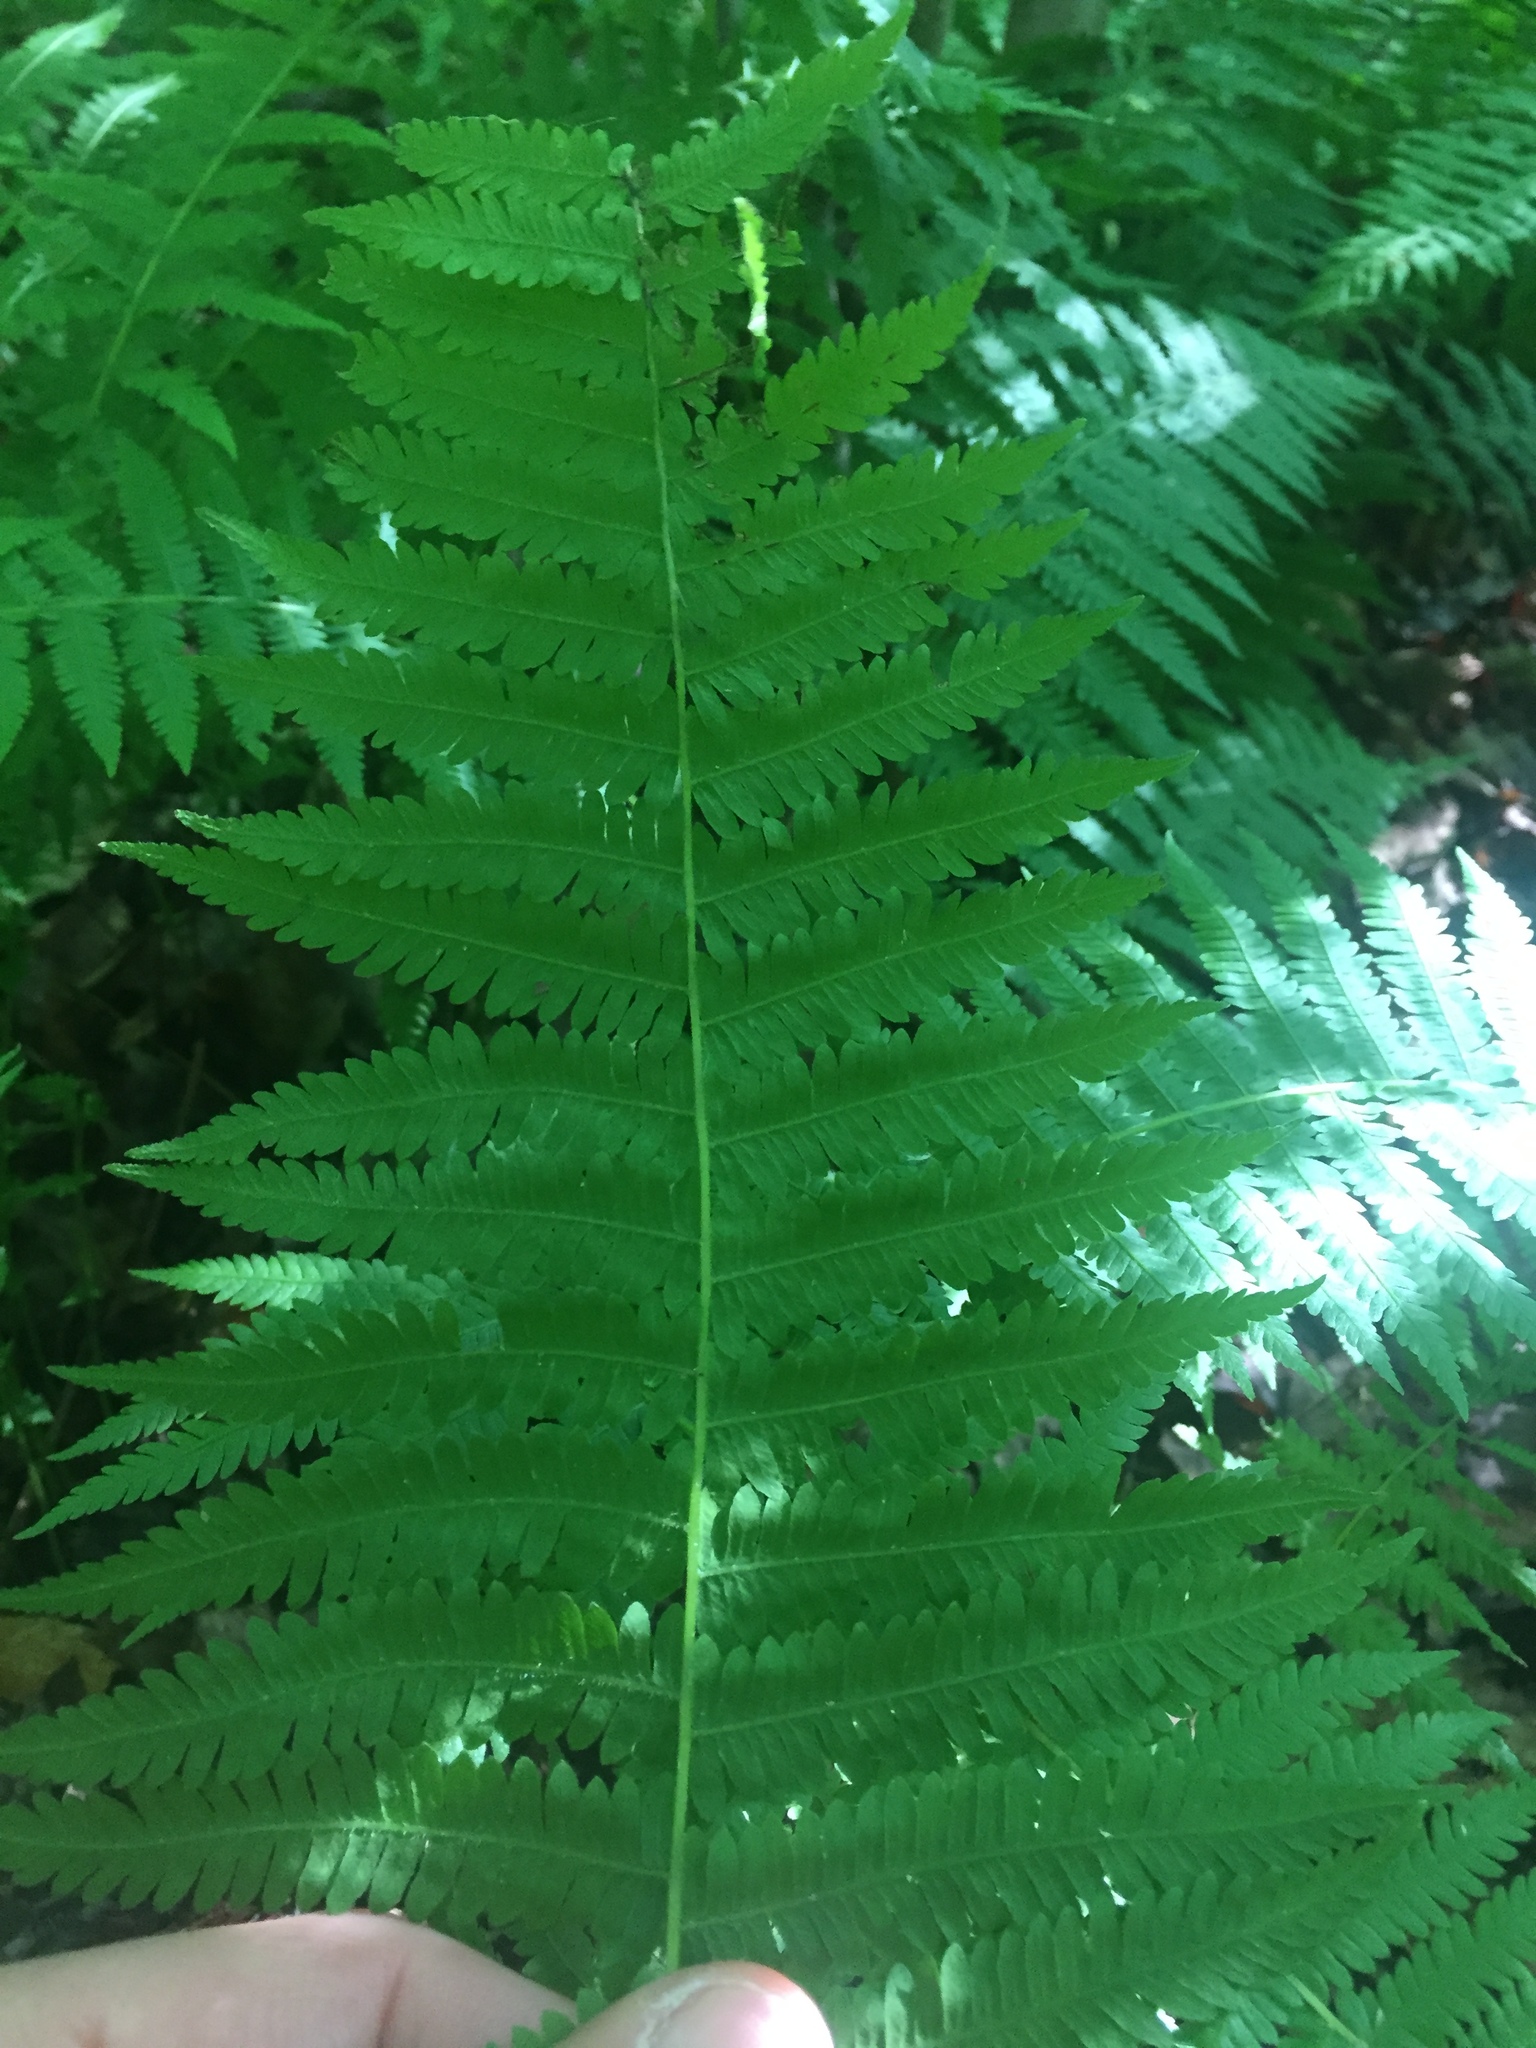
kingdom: Plantae
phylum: Tracheophyta
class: Polypodiopsida
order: Polypodiales
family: Thelypteridaceae
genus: Amauropelta
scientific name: Amauropelta noveboracensis
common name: New york fern
